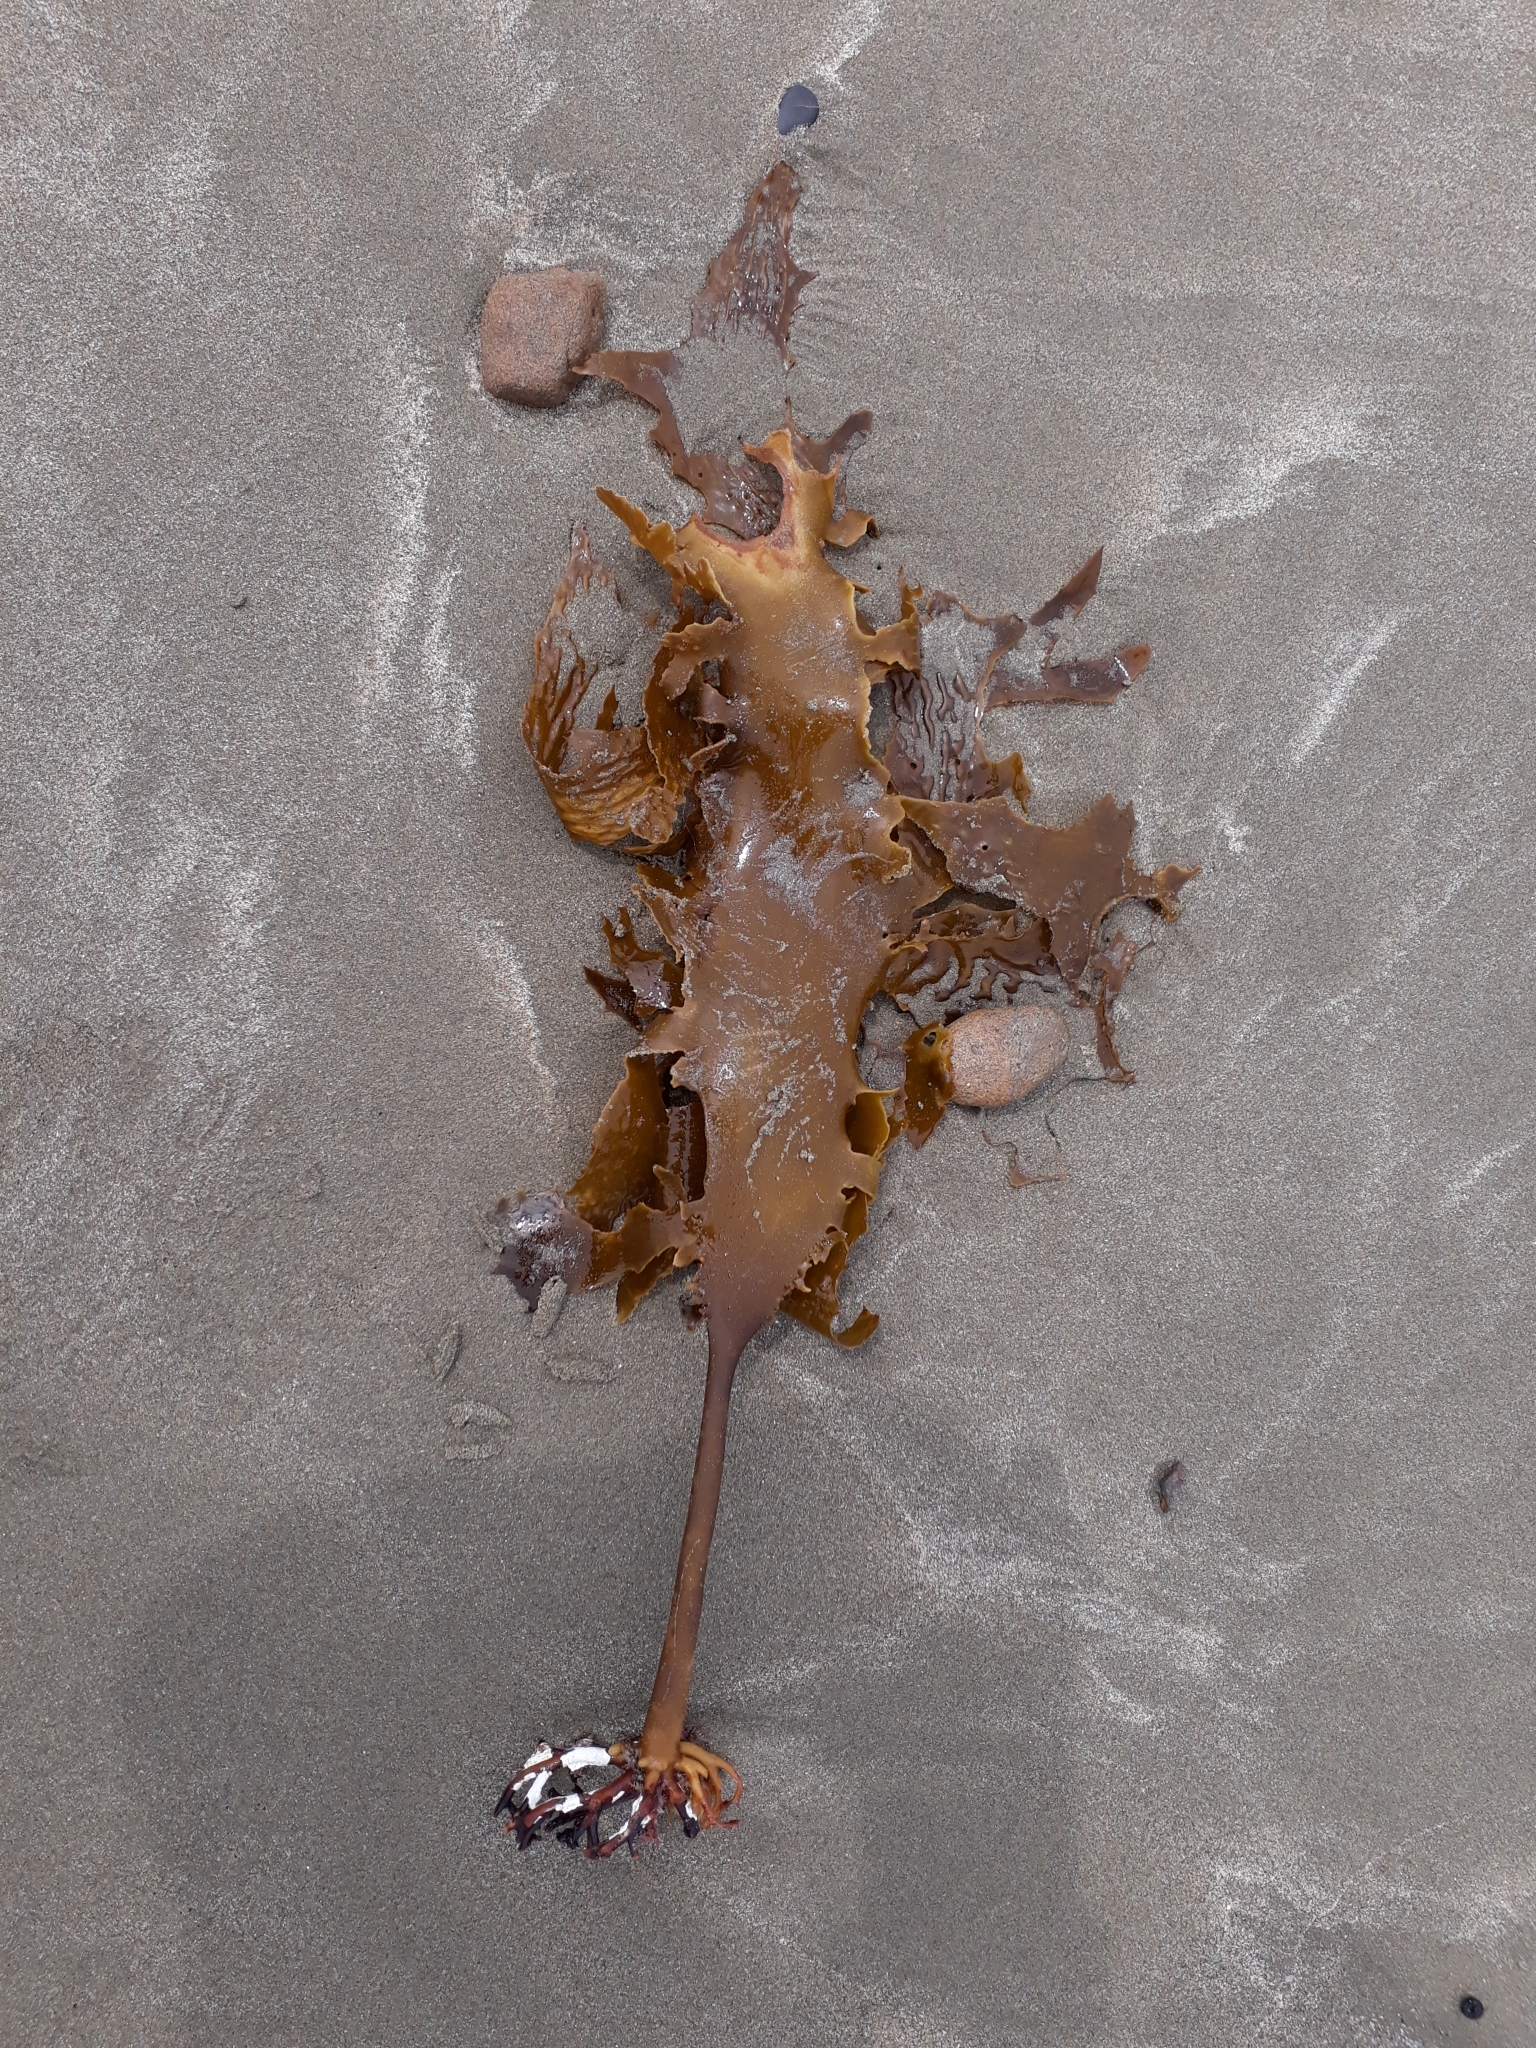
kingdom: Chromista
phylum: Ochrophyta
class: Phaeophyceae
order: Laminariales
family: Lessoniaceae
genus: Ecklonia
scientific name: Ecklonia radiata
